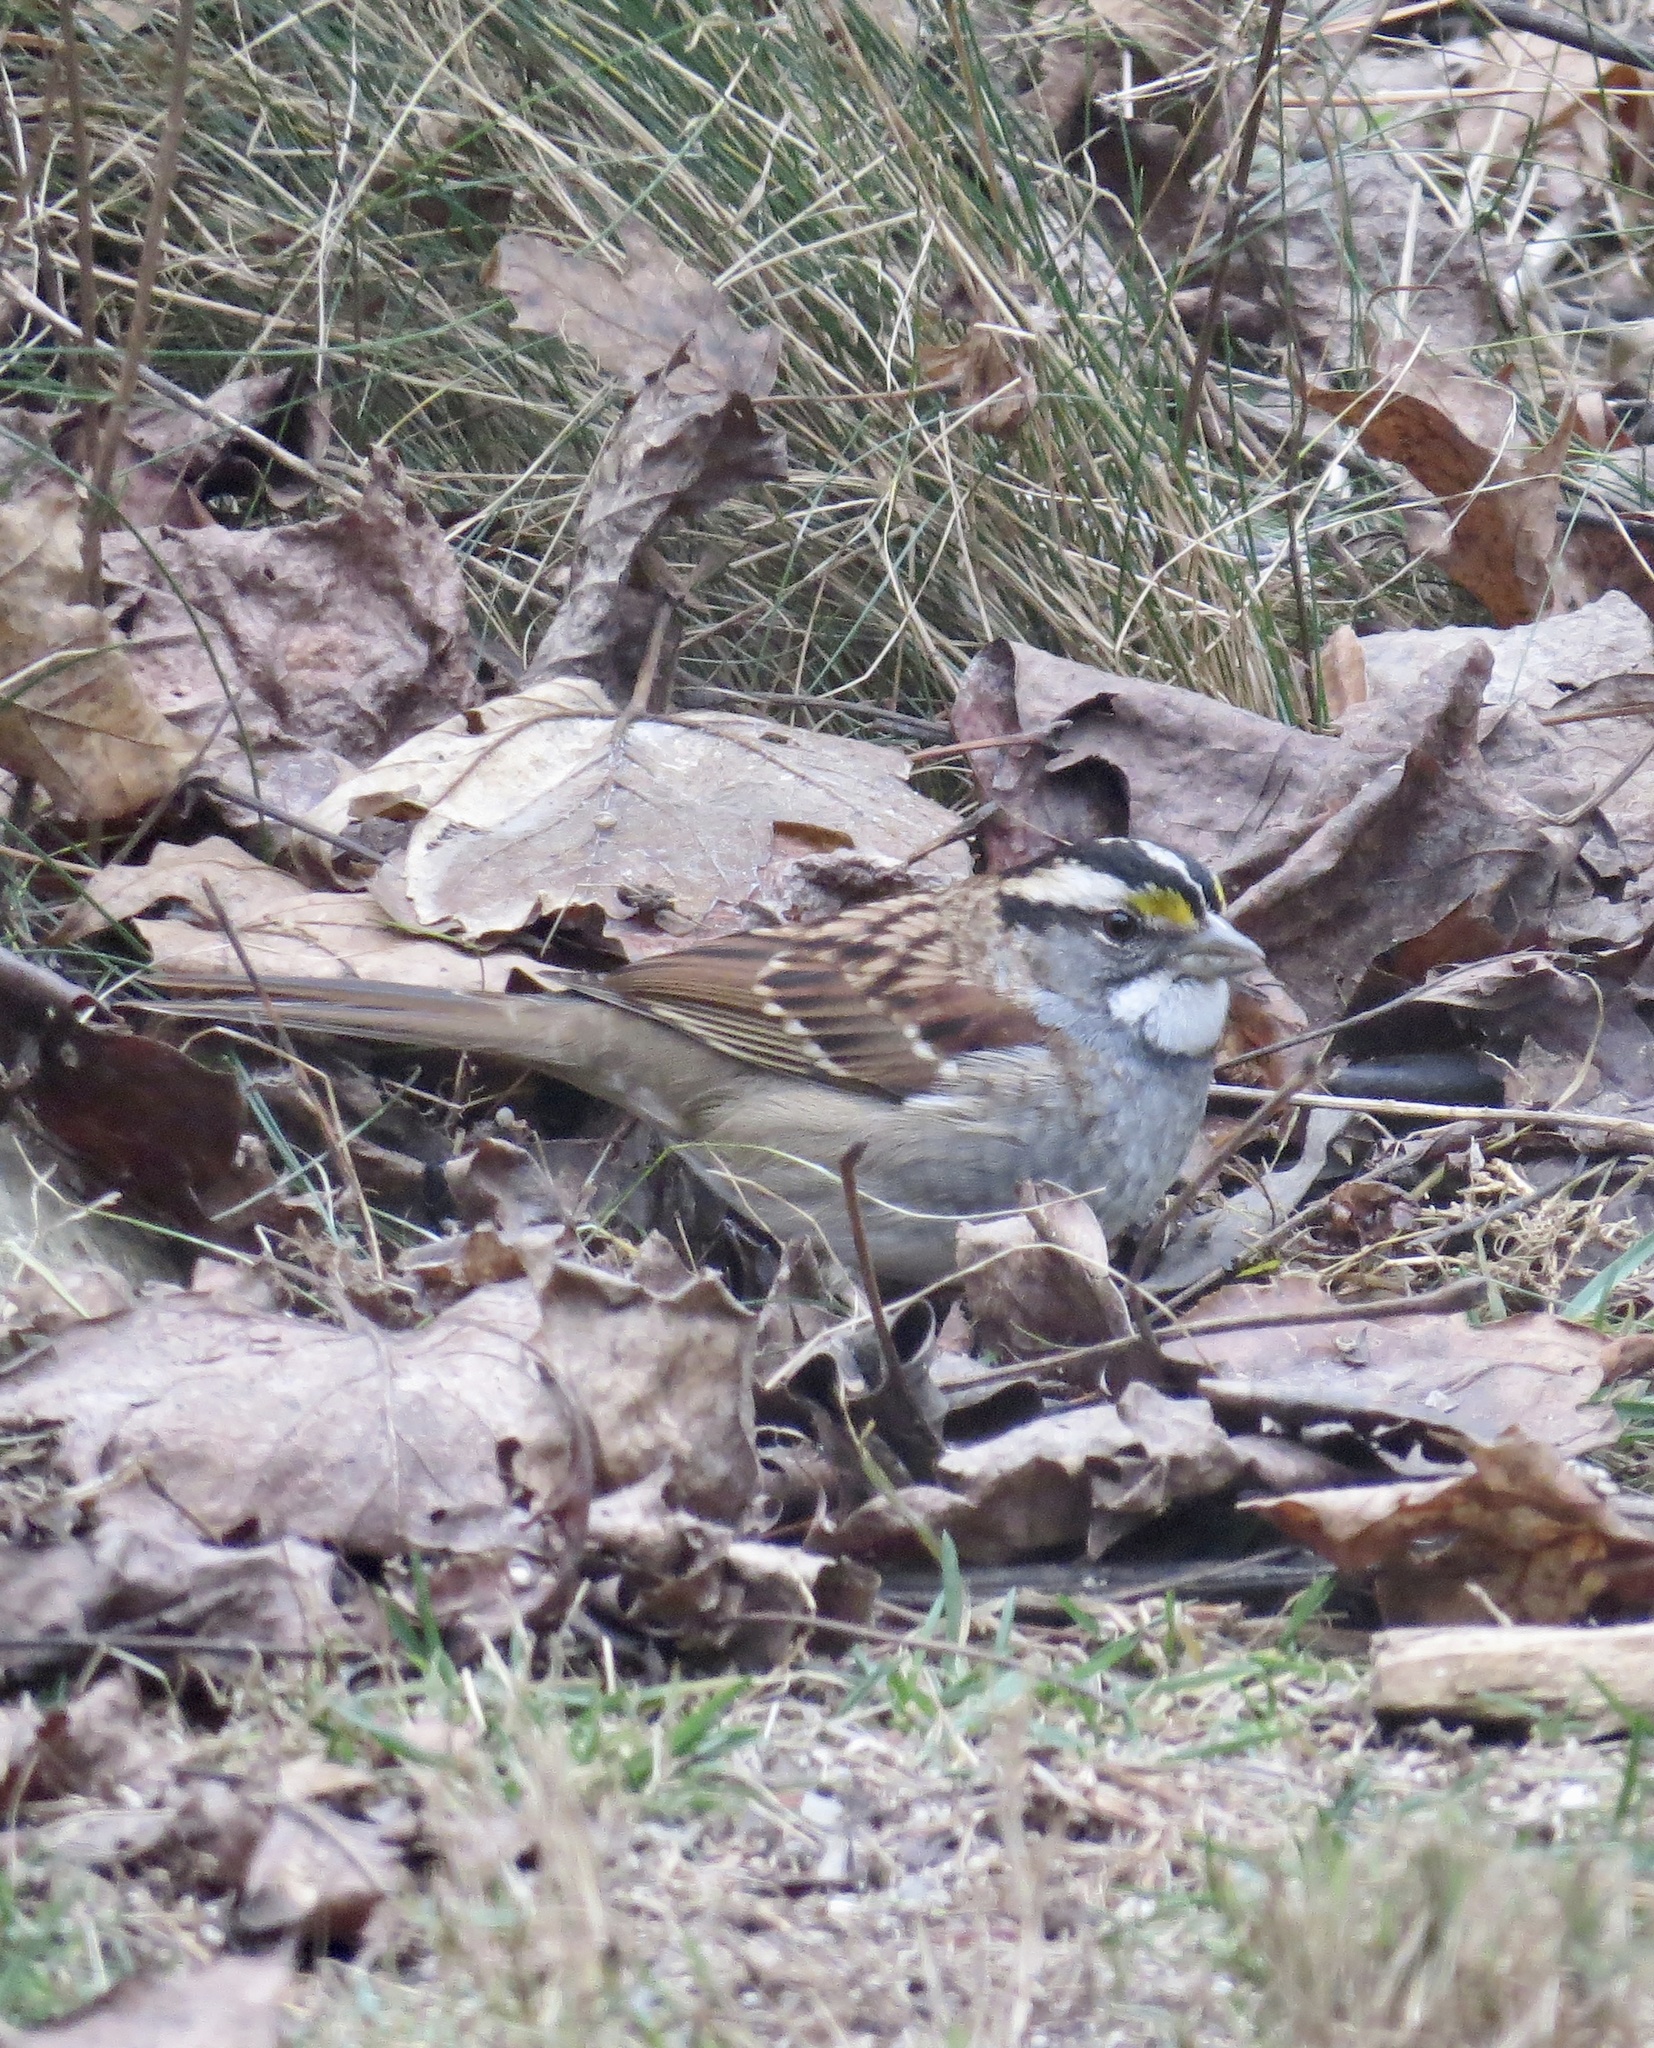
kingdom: Animalia
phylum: Chordata
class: Aves
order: Passeriformes
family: Passerellidae
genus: Zonotrichia
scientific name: Zonotrichia albicollis
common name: White-throated sparrow
